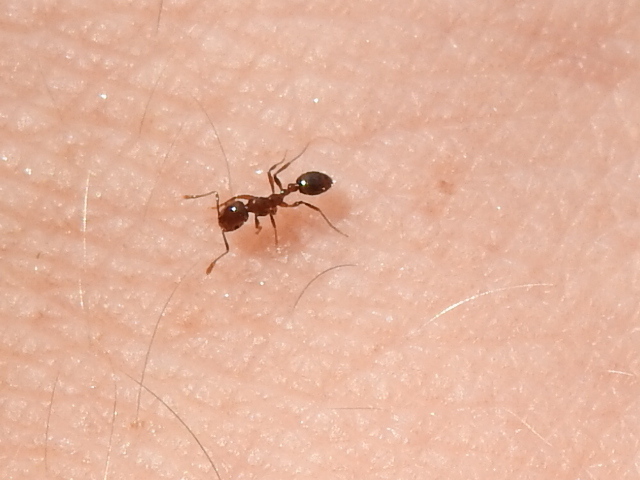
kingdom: Animalia
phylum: Arthropoda
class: Insecta
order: Hymenoptera
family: Formicidae
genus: Solenopsis
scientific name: Solenopsis invicta
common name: Red imported fire ant
